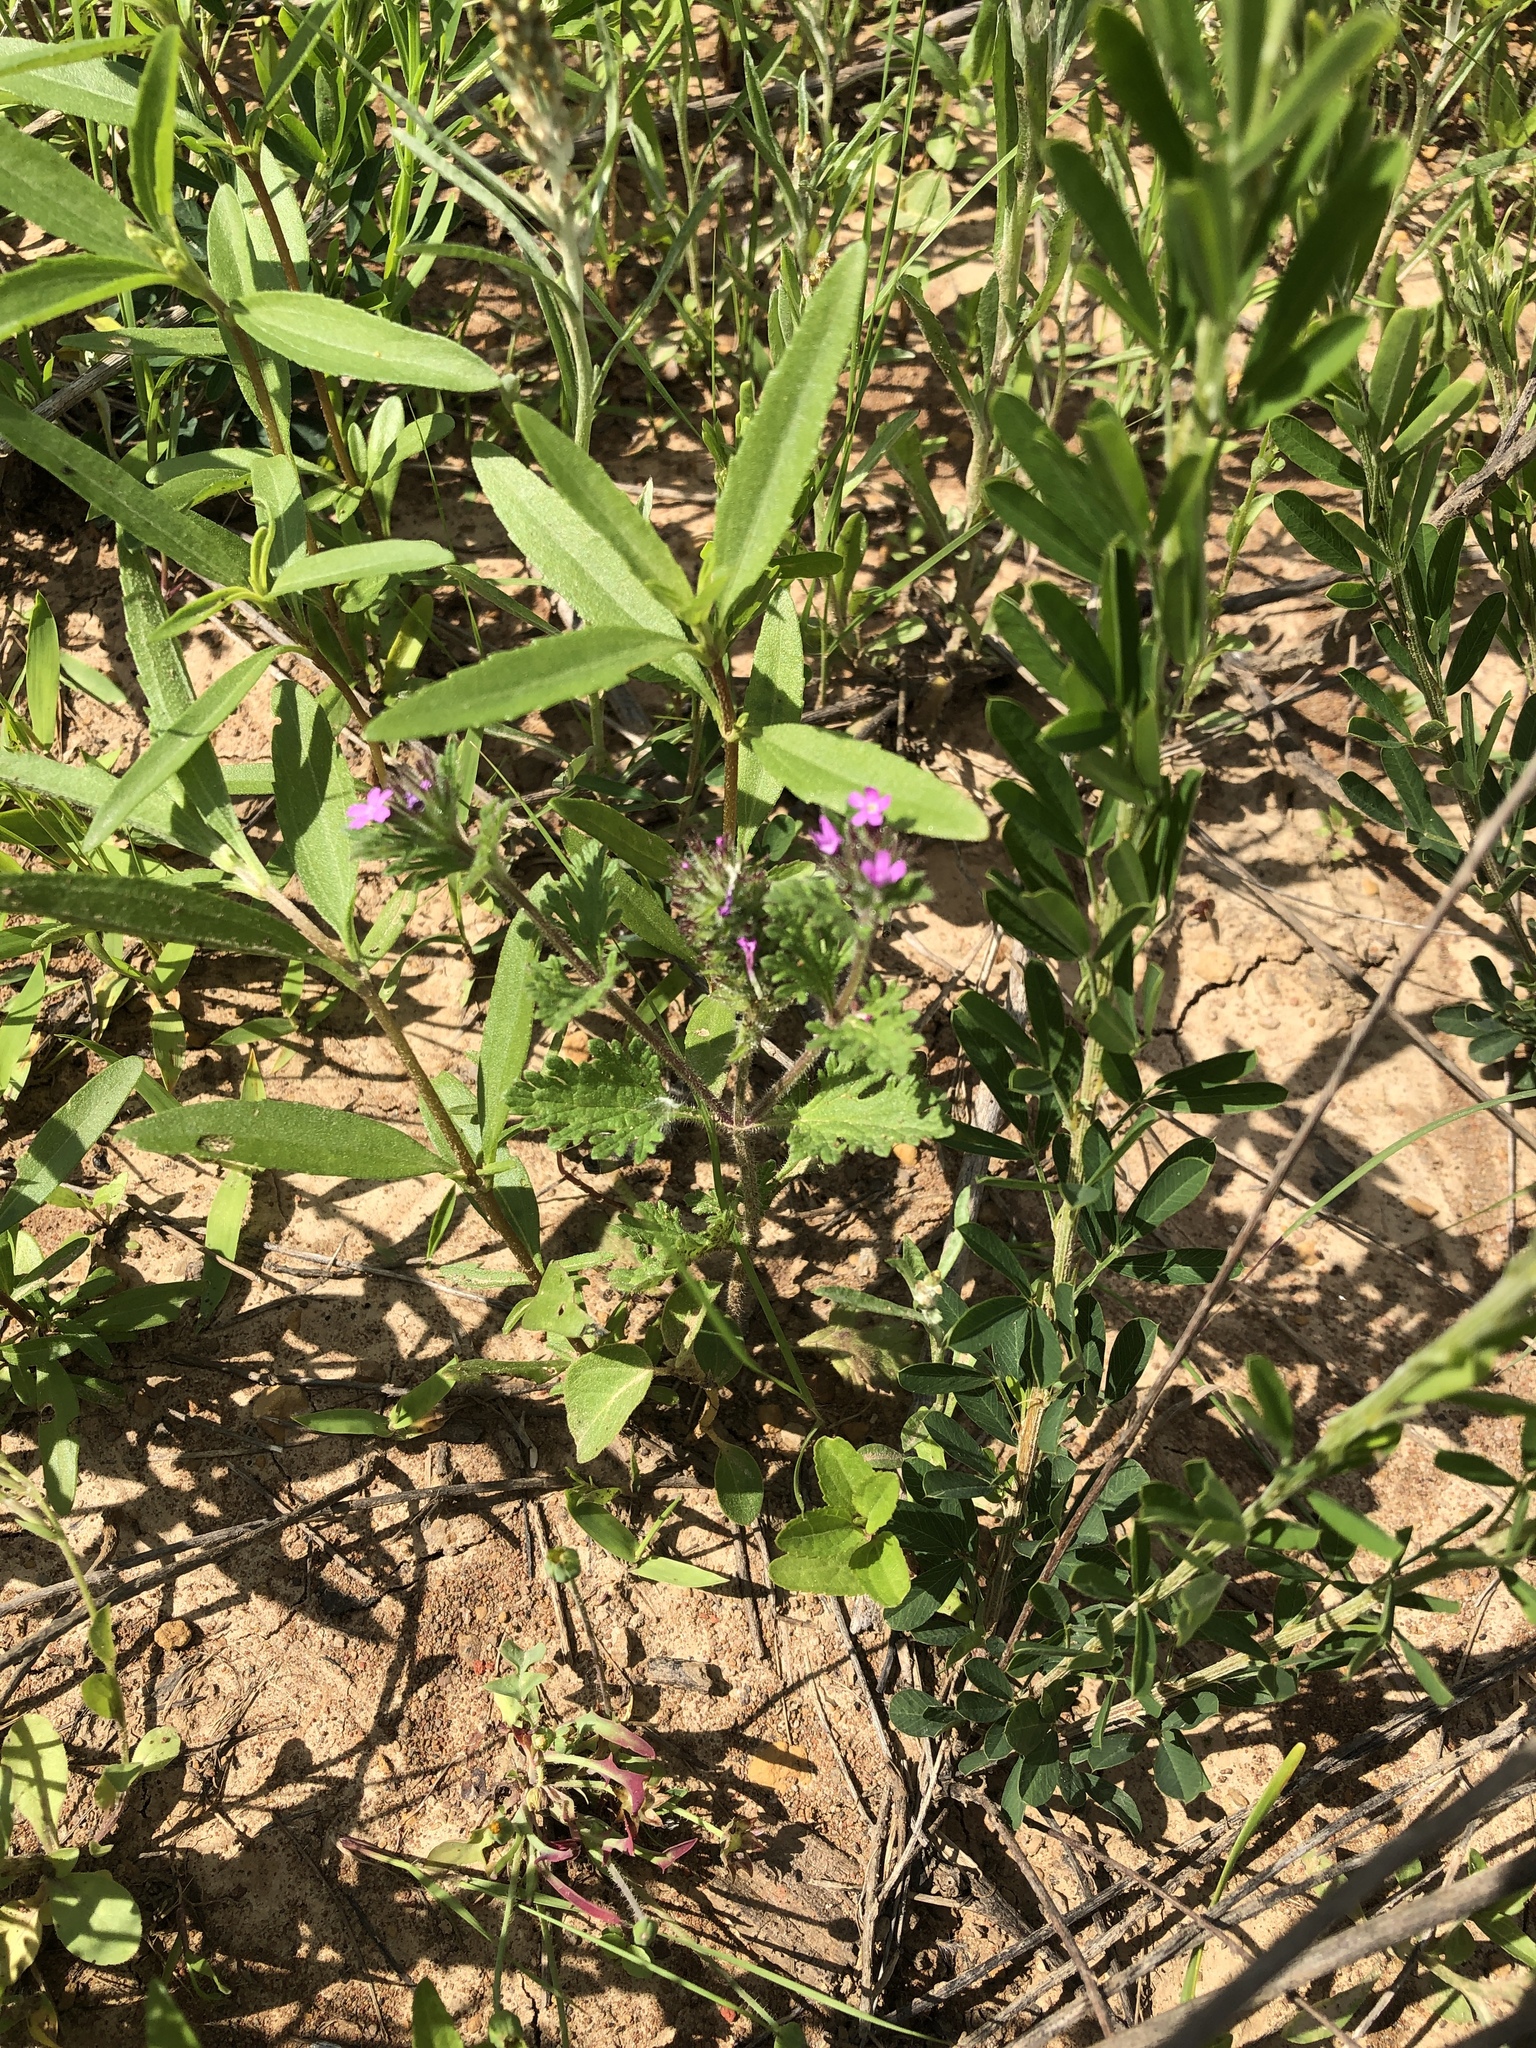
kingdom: Plantae
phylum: Tracheophyta
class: Magnoliopsida
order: Lamiales
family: Verbenaceae
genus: Verbena
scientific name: Verbena pumila
